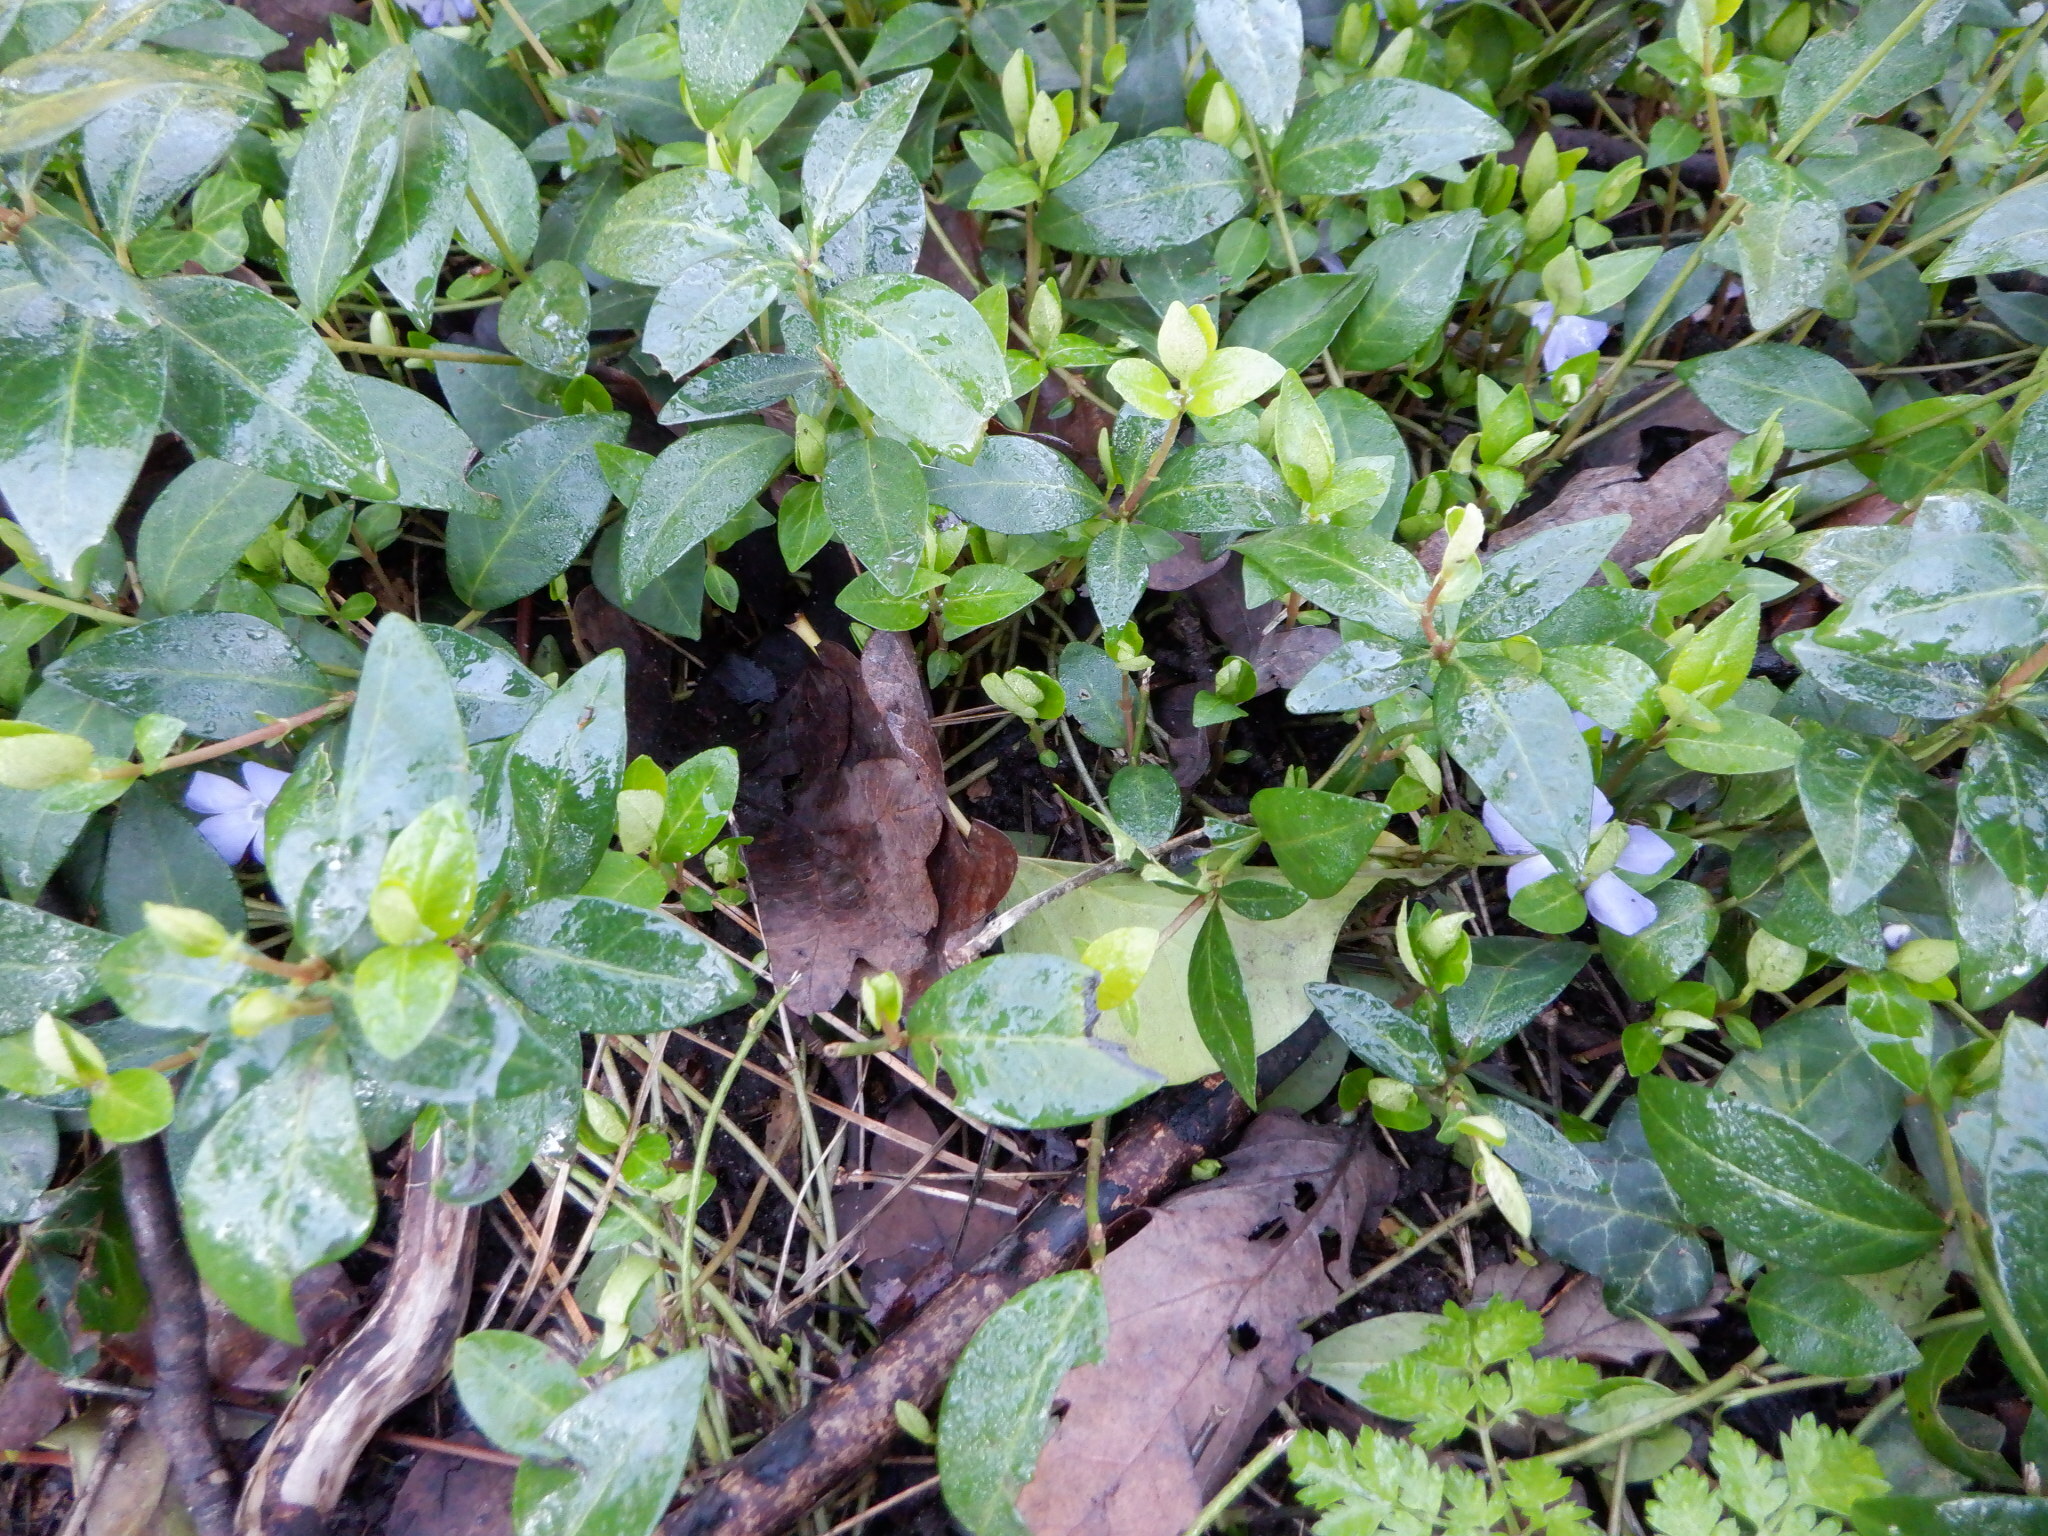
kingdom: Plantae
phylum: Tracheophyta
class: Magnoliopsida
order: Gentianales
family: Apocynaceae
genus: Vinca
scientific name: Vinca minor
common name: Lesser periwinkle
